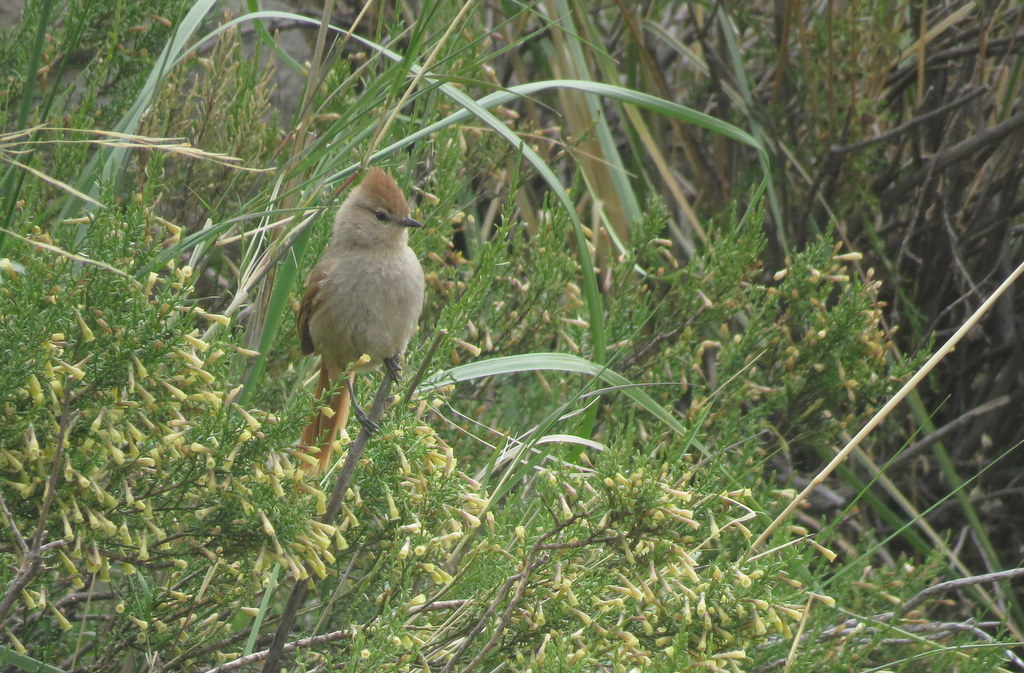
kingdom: Animalia
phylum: Chordata
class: Aves
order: Passeriformes
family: Furnariidae
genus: Leptasthenura
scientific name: Leptasthenura fuliginiceps
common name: Brown-capped tit-spinetail
